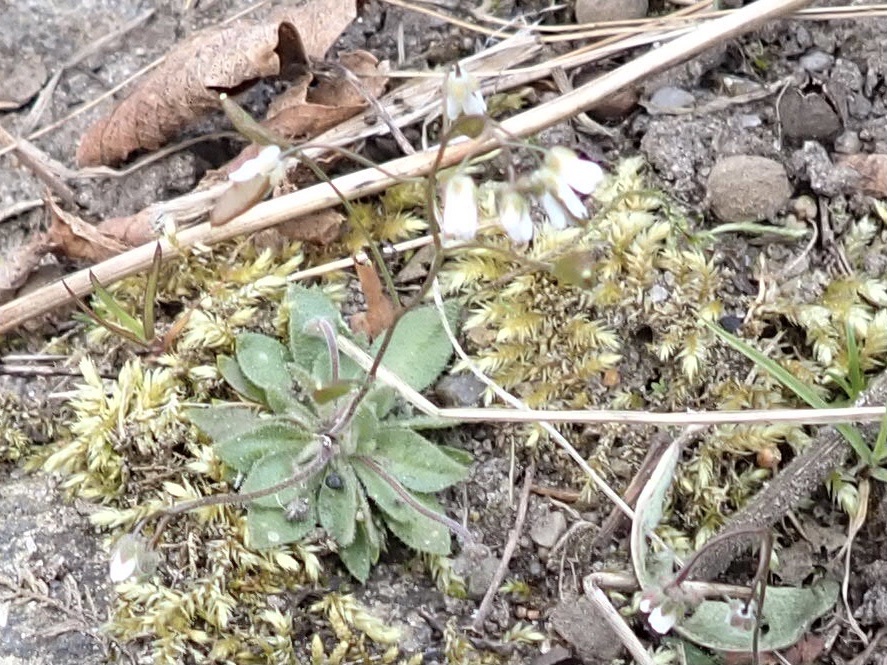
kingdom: Plantae
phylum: Tracheophyta
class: Magnoliopsida
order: Brassicales
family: Brassicaceae
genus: Draba
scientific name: Draba verna
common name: Spring draba
